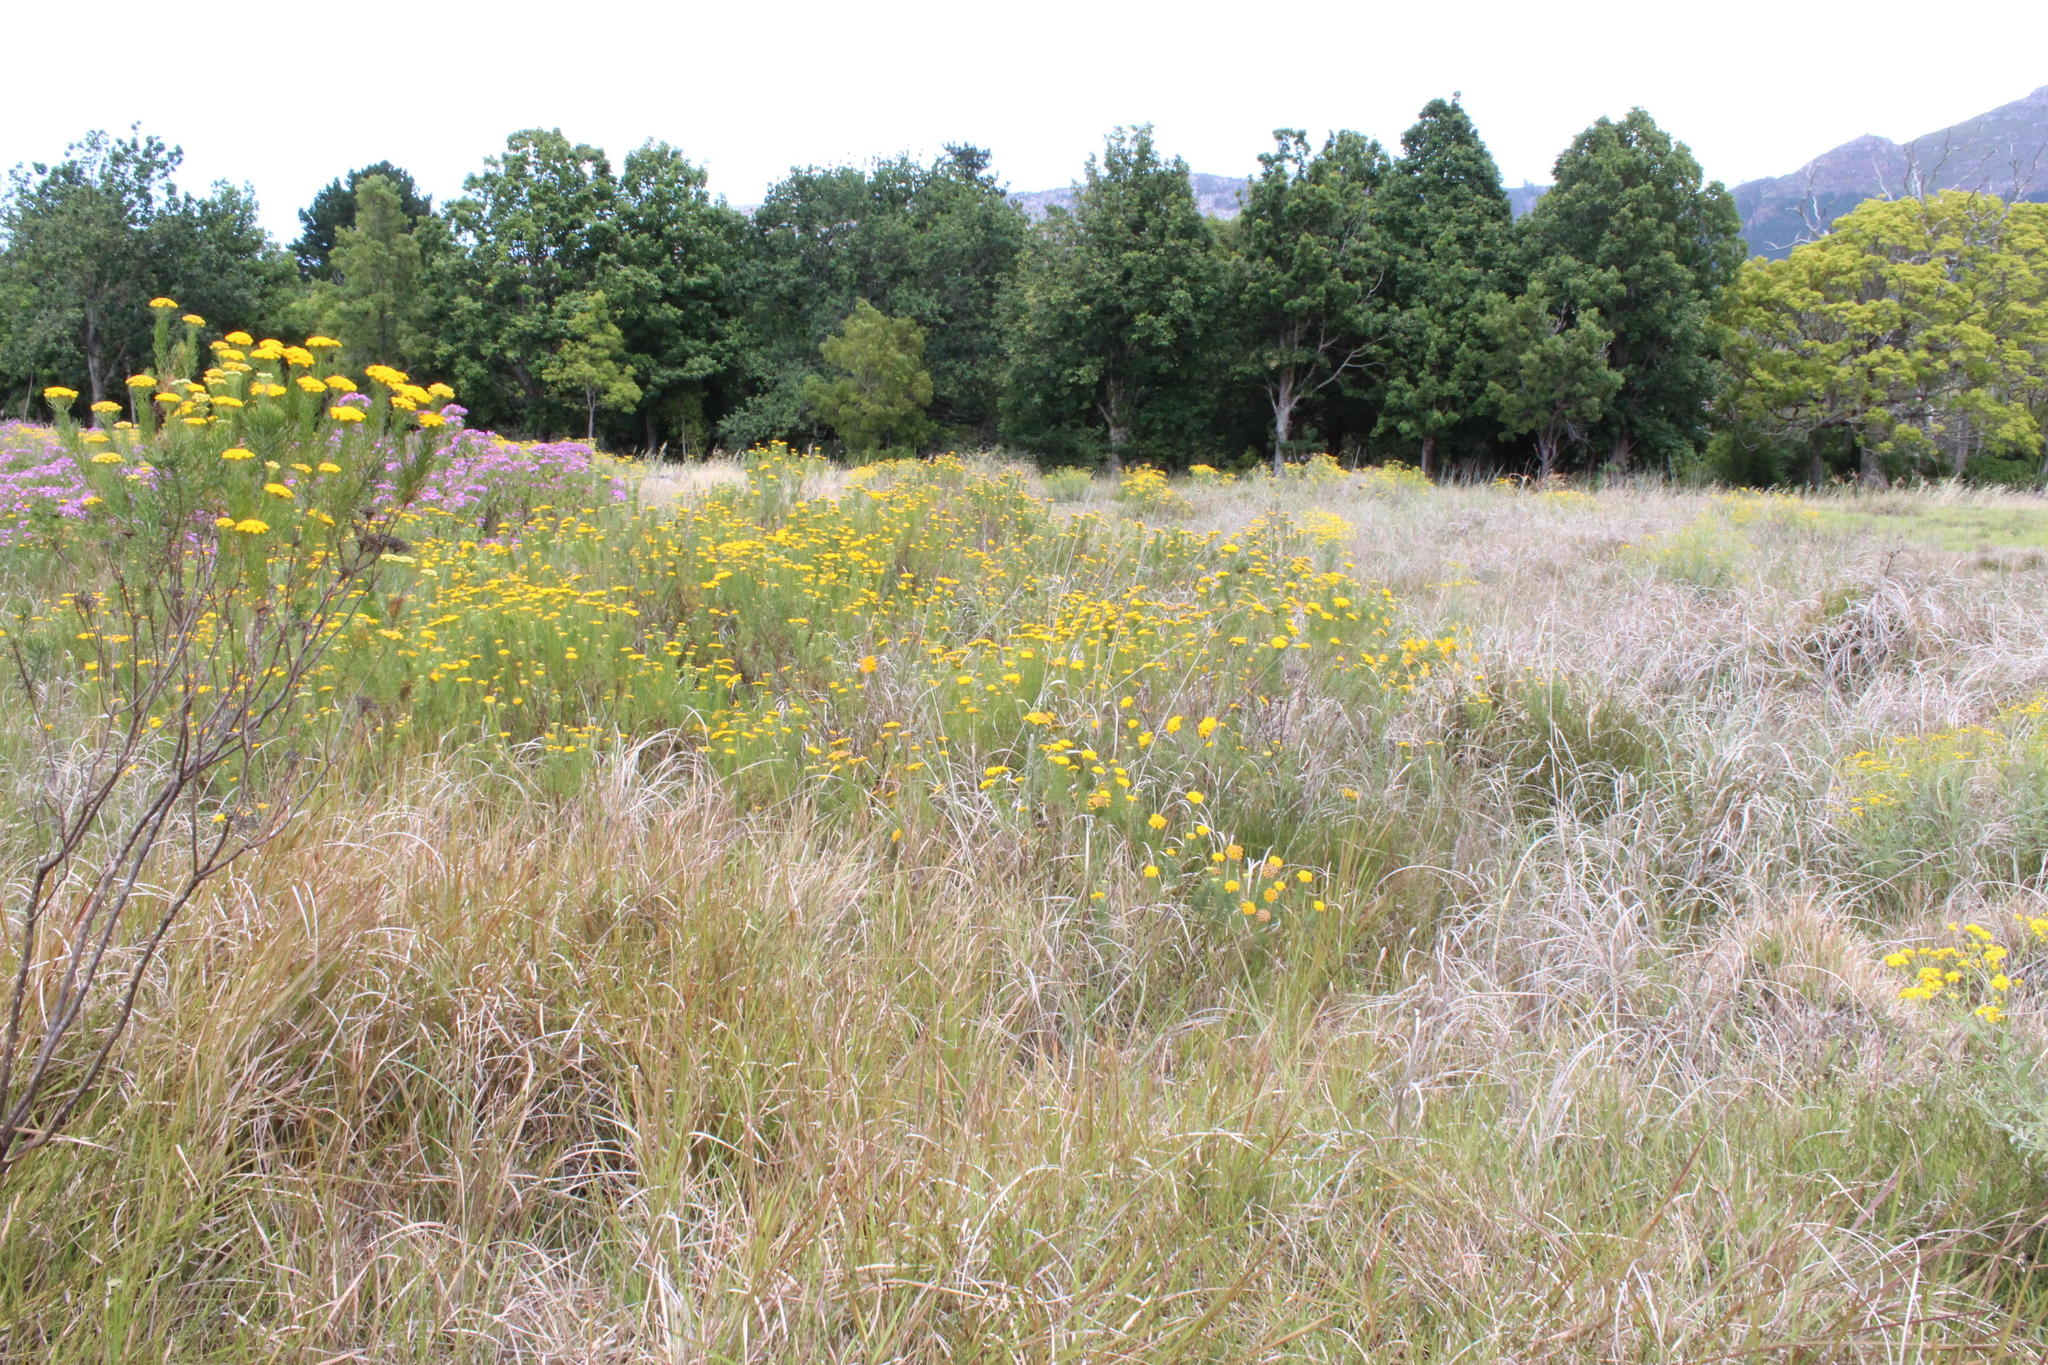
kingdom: Plantae
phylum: Tracheophyta
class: Magnoliopsida
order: Asterales
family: Asteraceae
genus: Hymenolepis
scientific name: Hymenolepis crithmifolia
